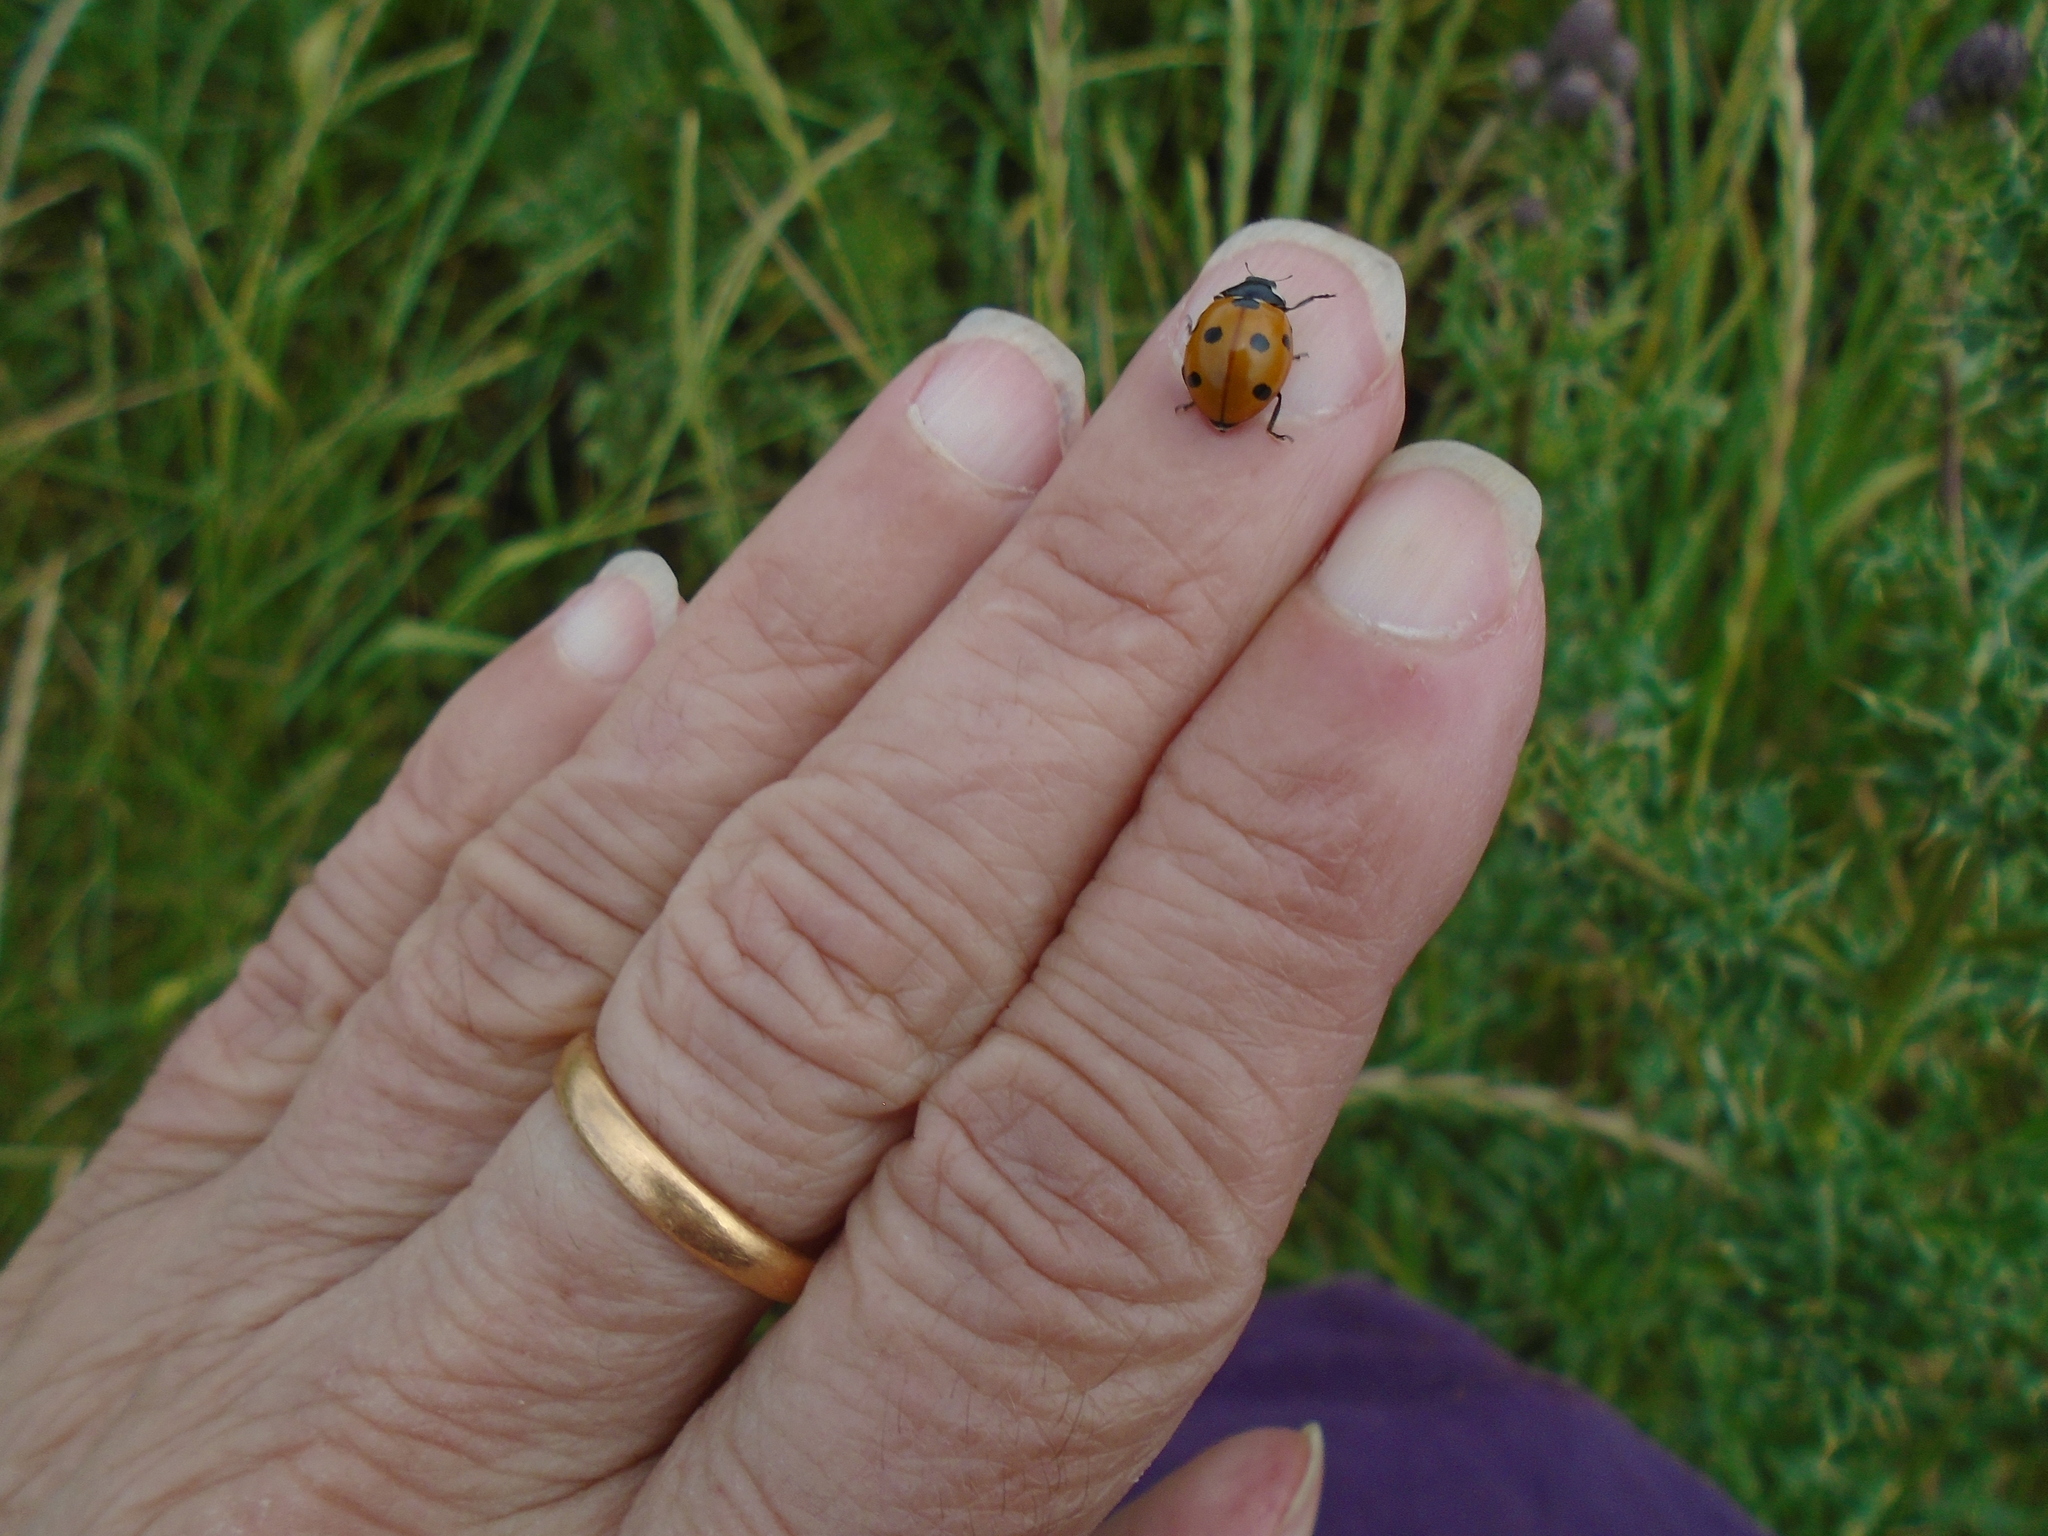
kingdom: Animalia
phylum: Arthropoda
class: Insecta
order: Coleoptera
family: Coccinellidae
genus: Coccinella
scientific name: Coccinella septempunctata
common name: Sevenspotted lady beetle
